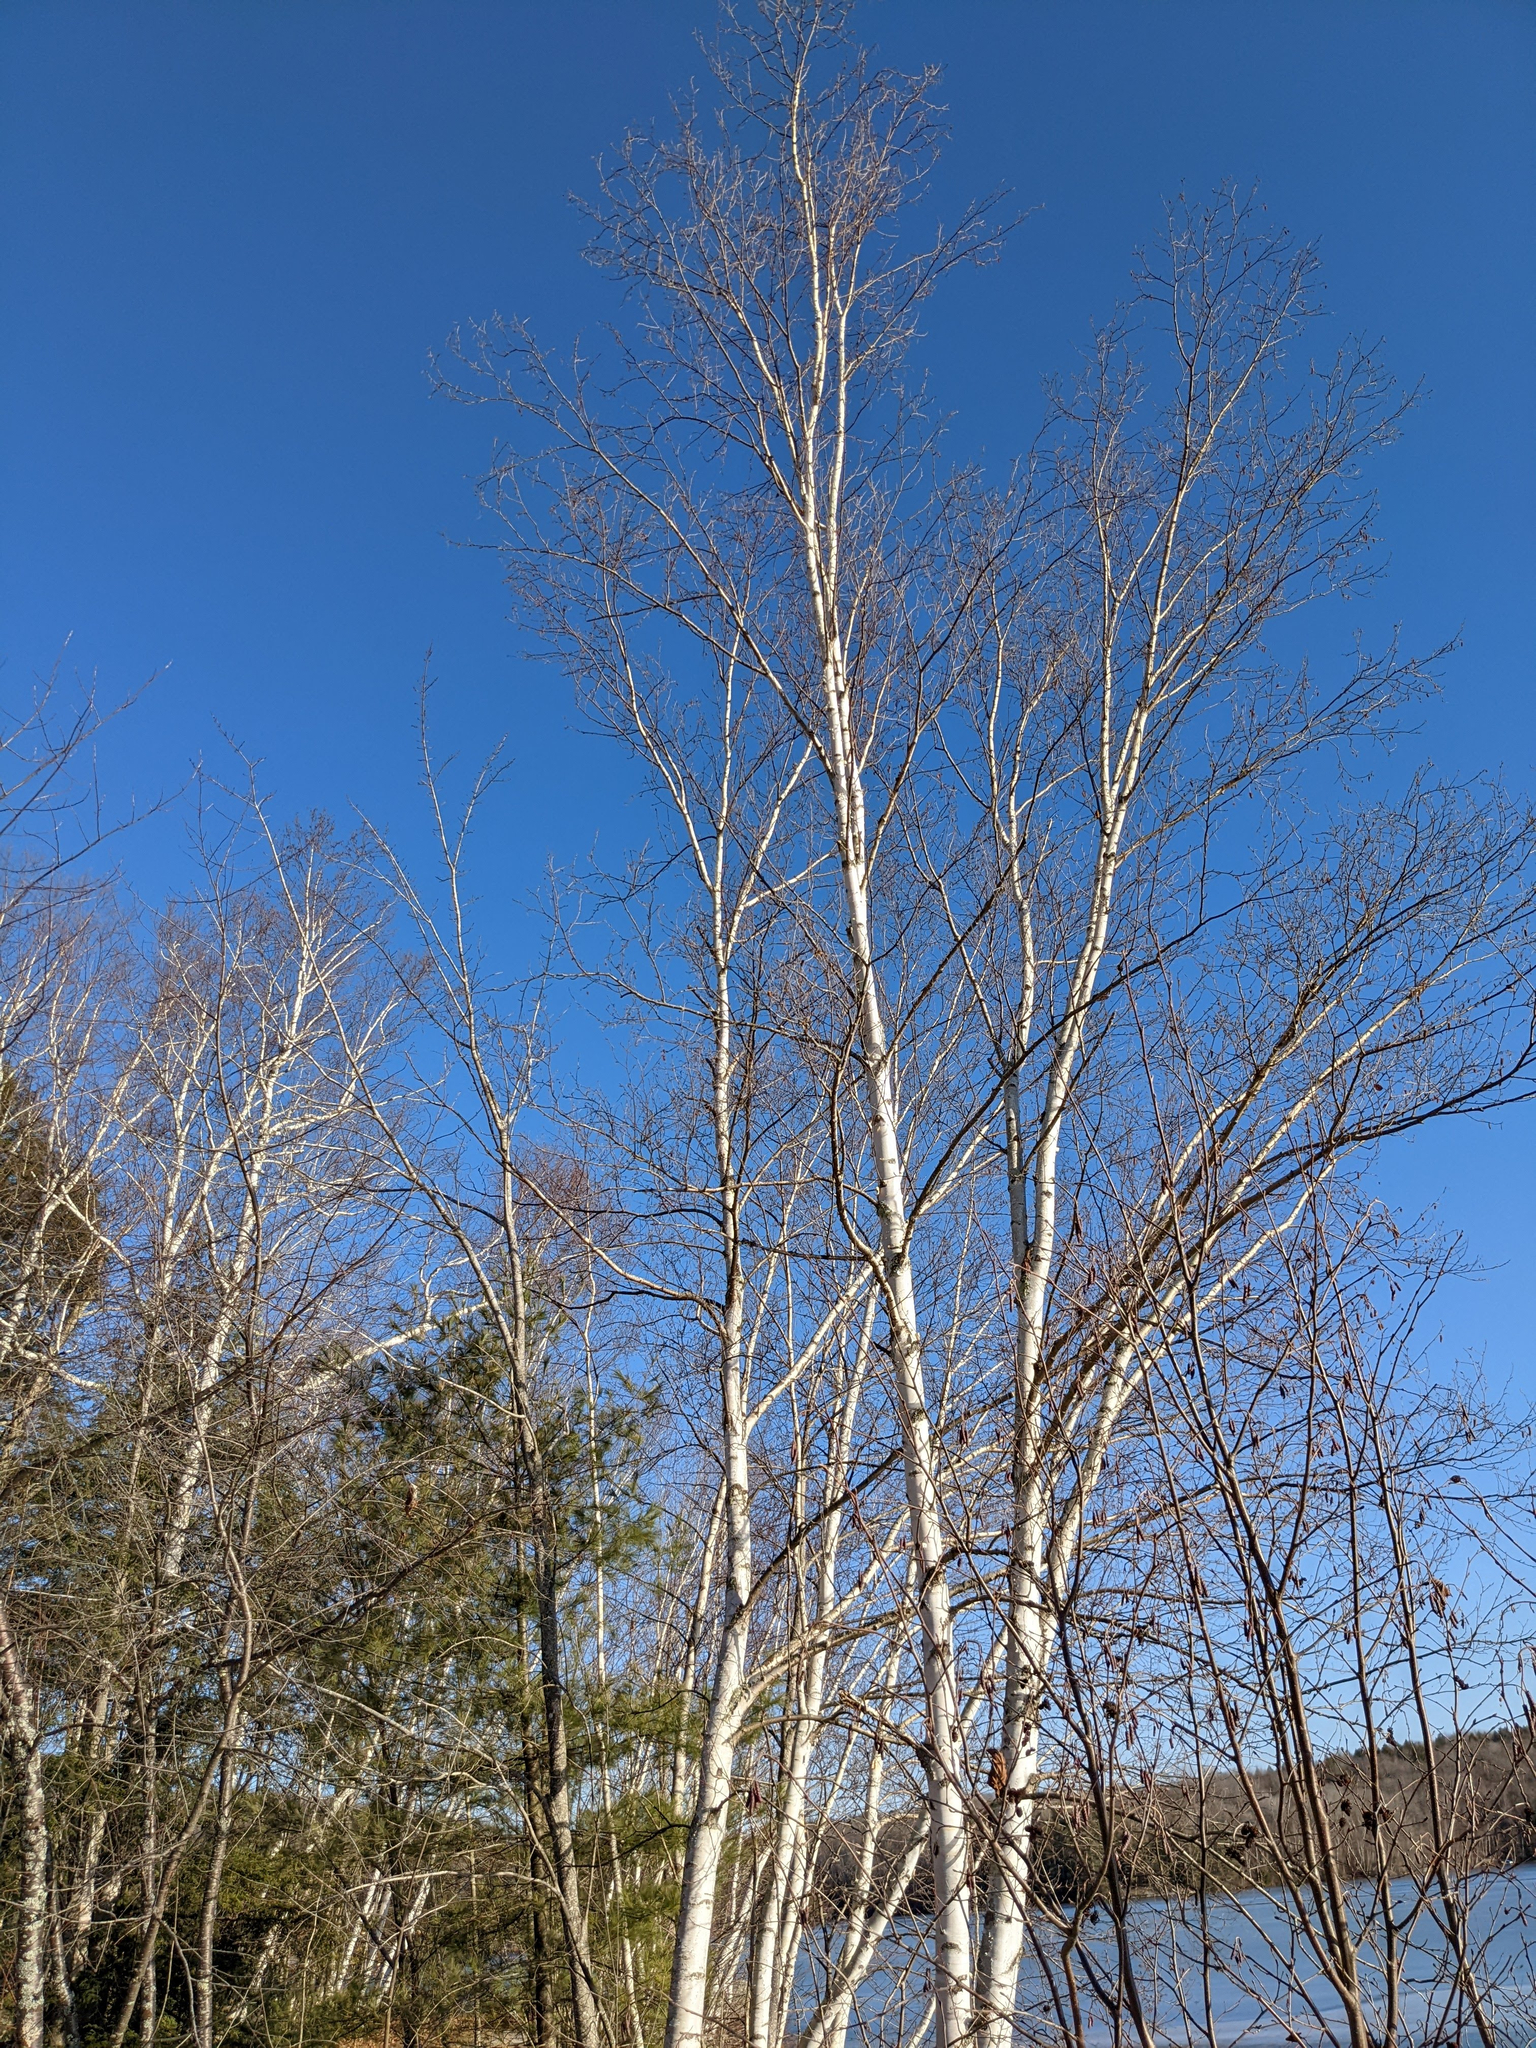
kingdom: Plantae
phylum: Tracheophyta
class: Magnoliopsida
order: Fagales
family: Betulaceae
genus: Betula
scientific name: Betula papyrifera
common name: Paper birch
